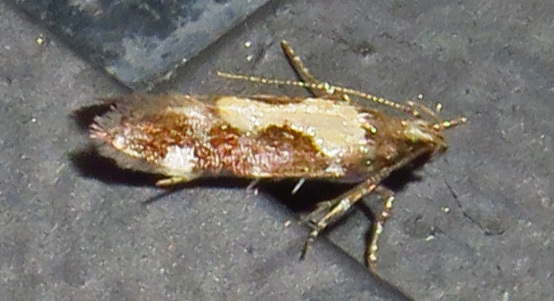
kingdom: Animalia
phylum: Arthropoda
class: Insecta
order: Lepidoptera
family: Gelechiidae
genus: Stegasta
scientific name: Stegasta bosqueella
